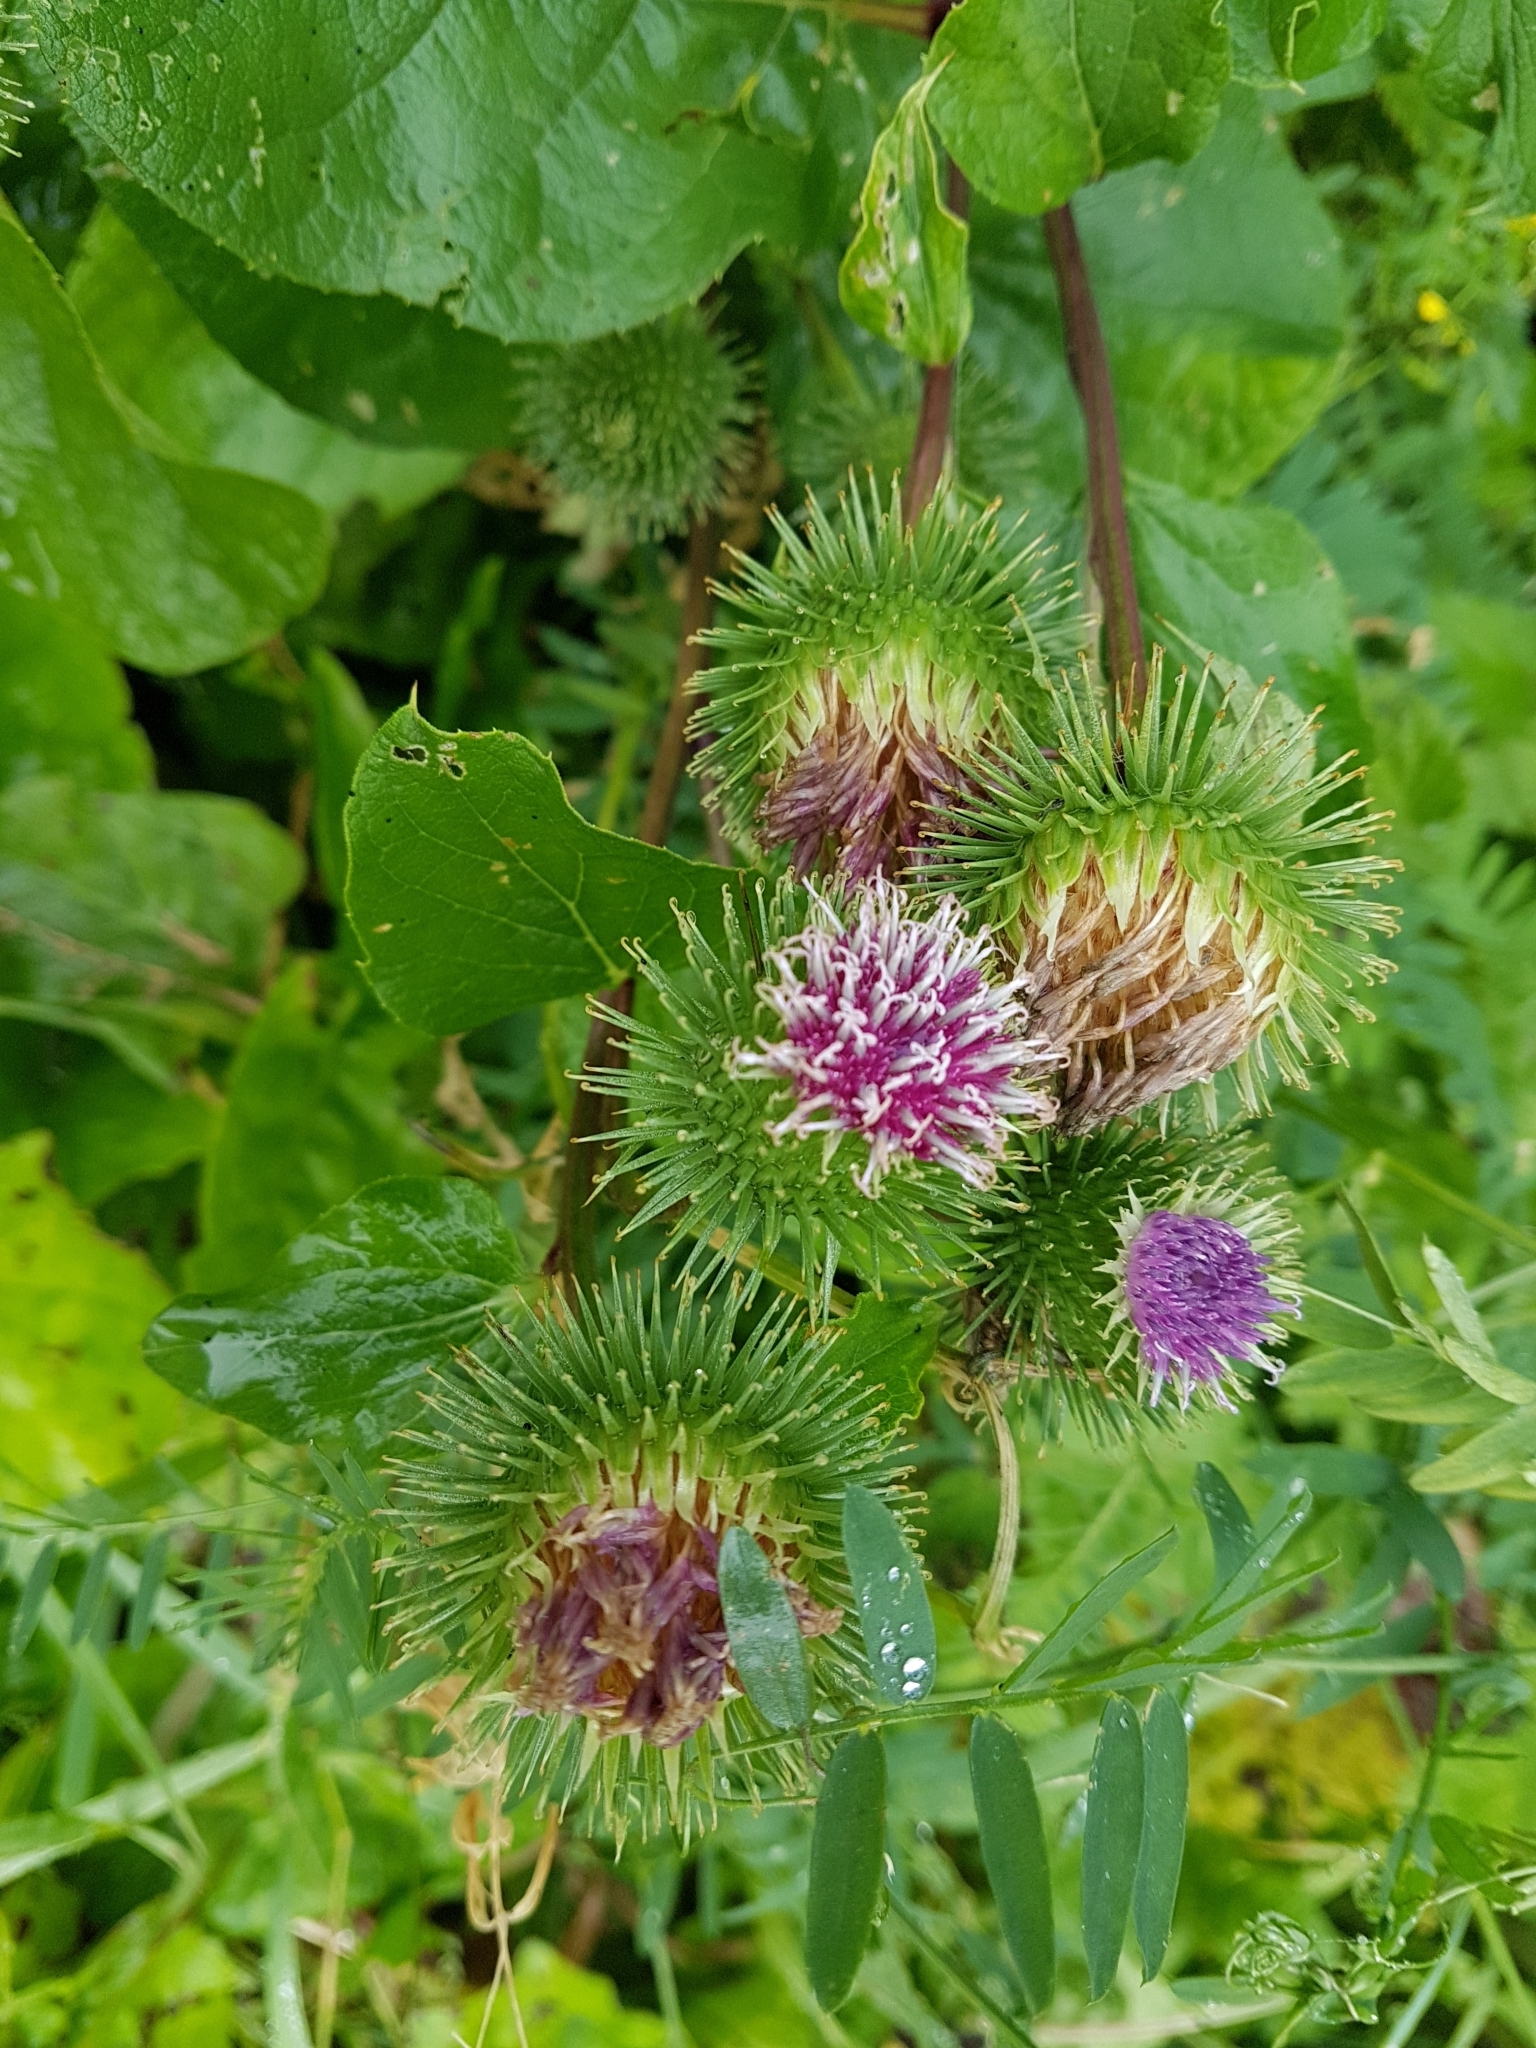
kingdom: Plantae
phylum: Tracheophyta
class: Magnoliopsida
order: Asterales
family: Asteraceae
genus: Arctium
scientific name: Arctium lappa
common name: Greater burdock
